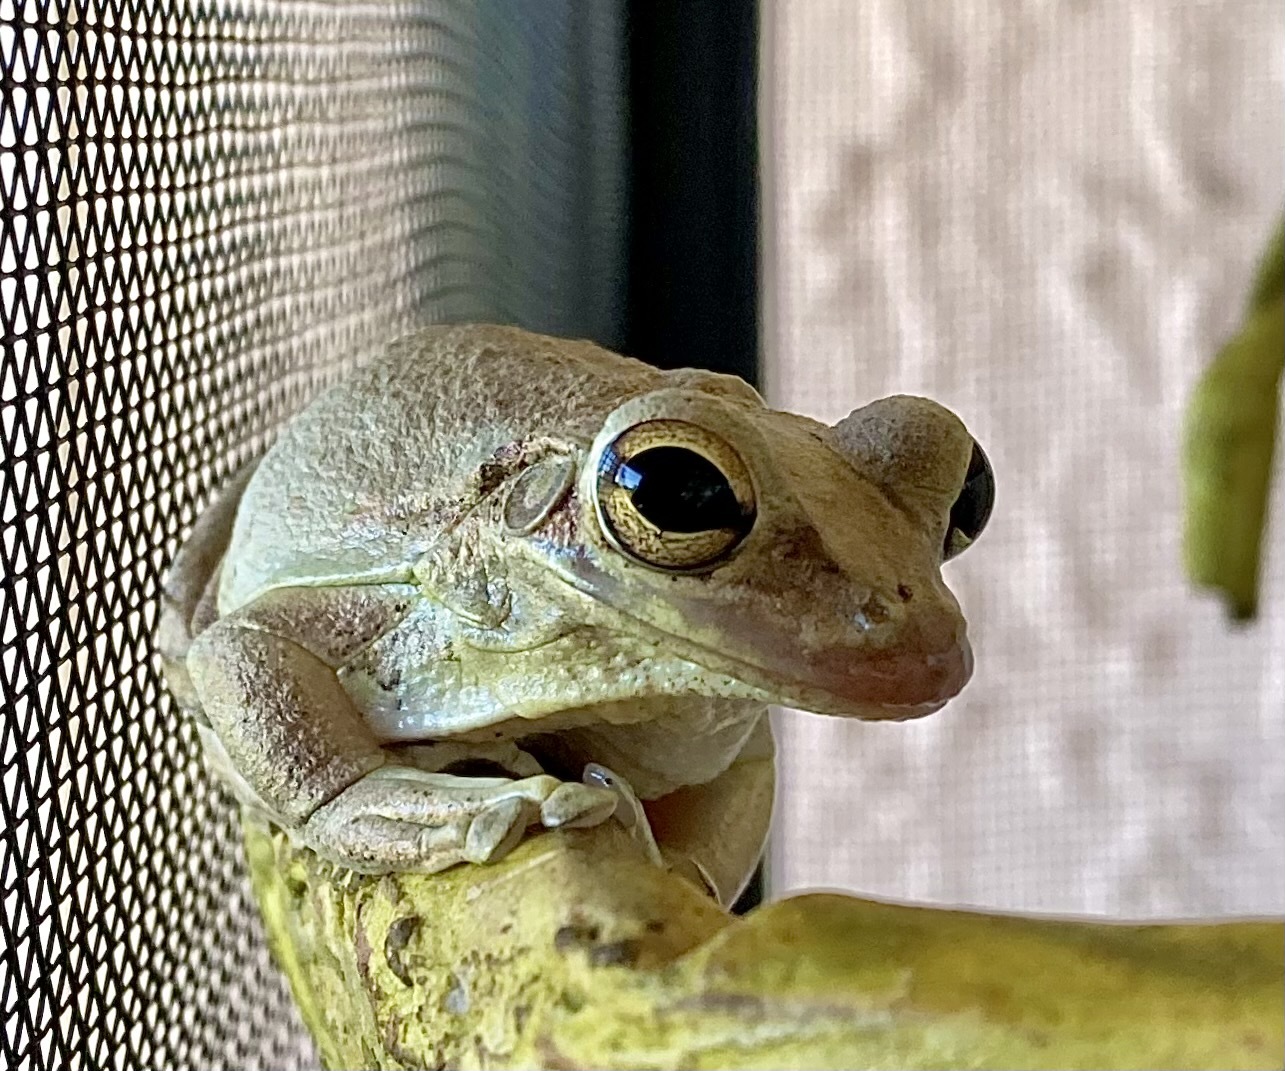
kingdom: Animalia
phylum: Chordata
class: Amphibia
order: Anura
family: Hylidae
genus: Osteopilus
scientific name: Osteopilus septentrionalis
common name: Cuban treefrog
